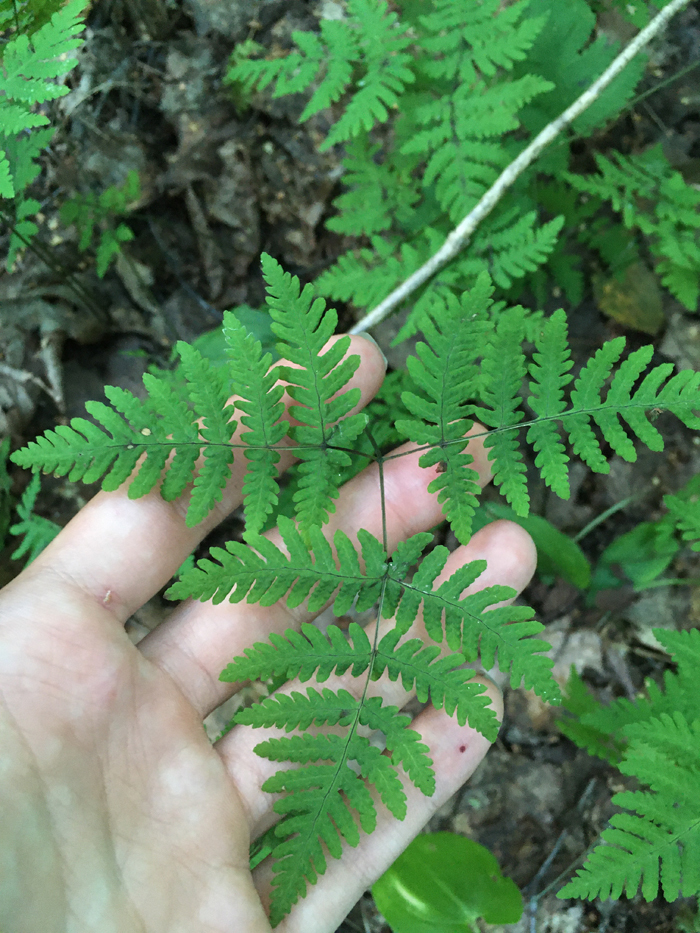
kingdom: Plantae
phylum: Tracheophyta
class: Polypodiopsida
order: Polypodiales
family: Cystopteridaceae
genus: Gymnocarpium
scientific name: Gymnocarpium dryopteris
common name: Oak fern
